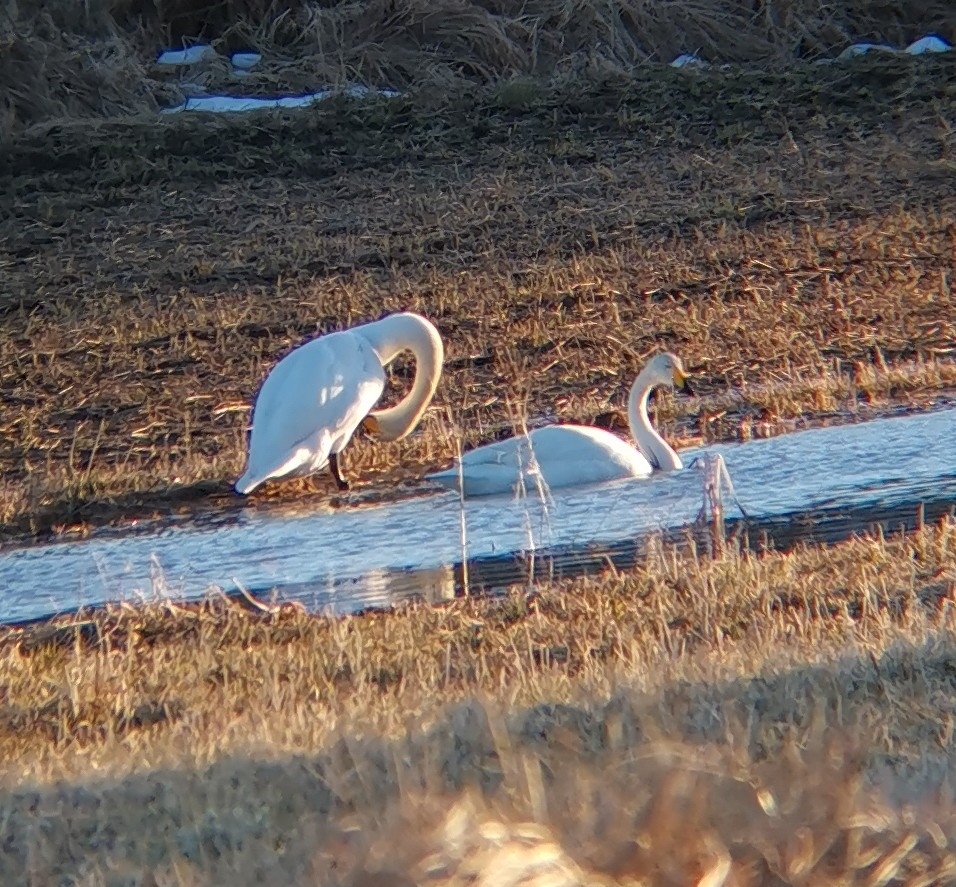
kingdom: Animalia
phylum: Chordata
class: Aves
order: Anseriformes
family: Anatidae
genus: Cygnus
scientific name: Cygnus cygnus
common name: Whooper swan
